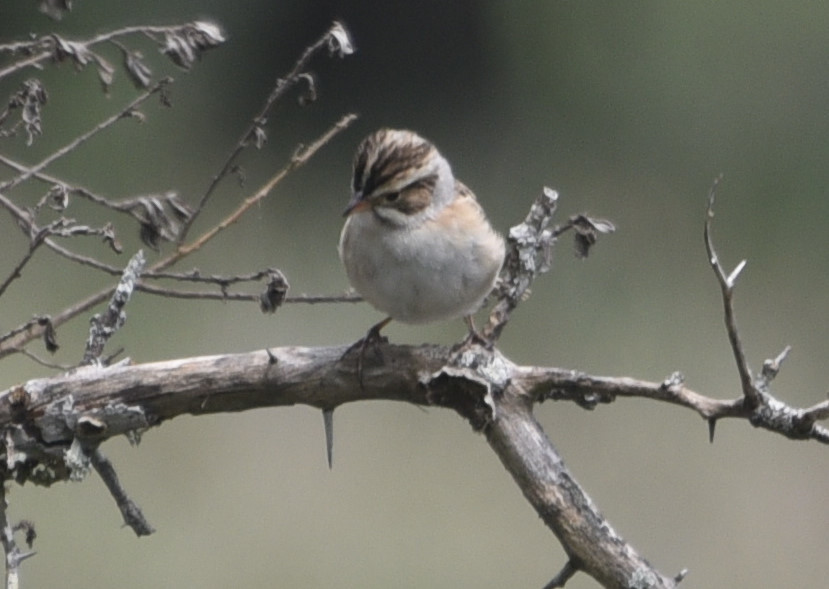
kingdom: Animalia
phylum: Chordata
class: Aves
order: Passeriformes
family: Passerellidae
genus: Spizella
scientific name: Spizella pallida
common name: Clay-colored sparrow
